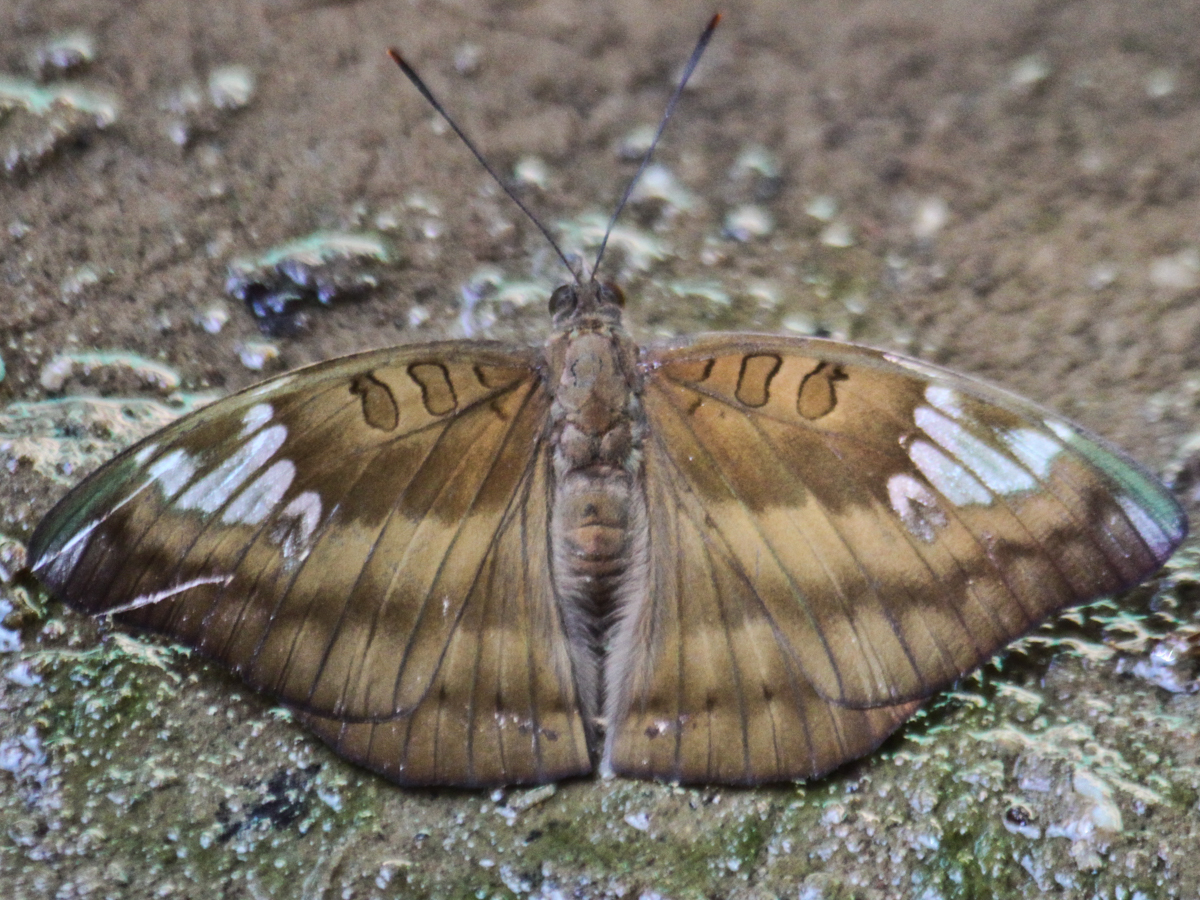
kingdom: Animalia
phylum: Arthropoda
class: Insecta
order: Lepidoptera
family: Nymphalidae
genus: Euthalia
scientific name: Euthalia alpheda
